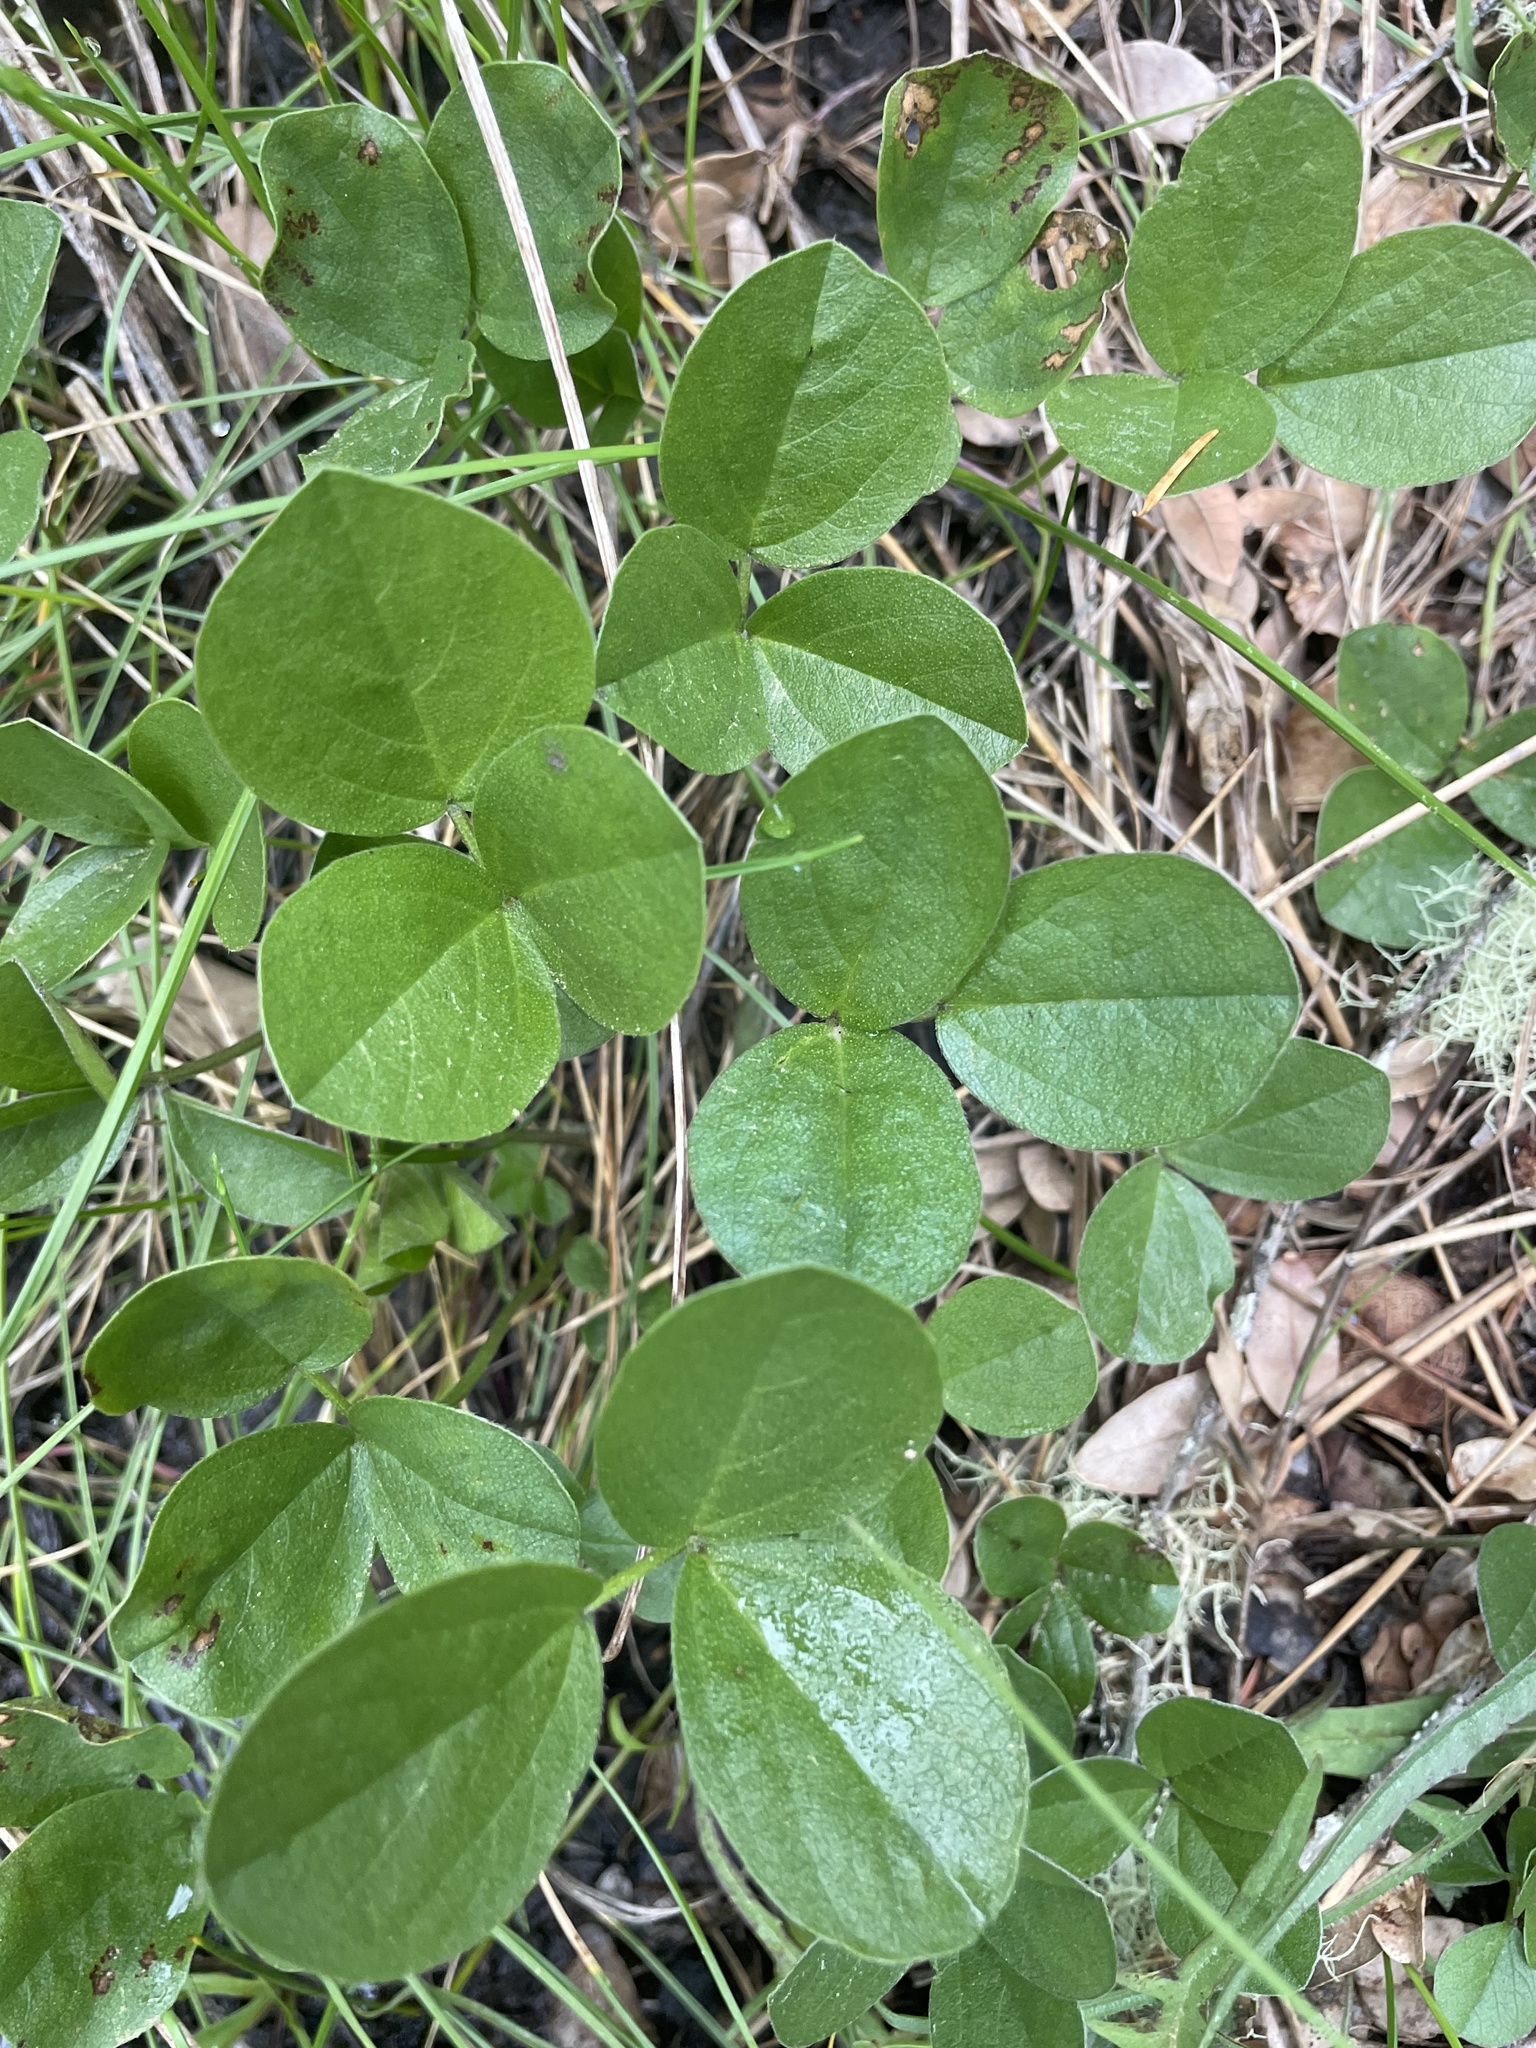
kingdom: Plantae
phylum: Tracheophyta
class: Magnoliopsida
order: Fabales
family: Fabaceae
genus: Hoita
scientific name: Hoita orbicularis
